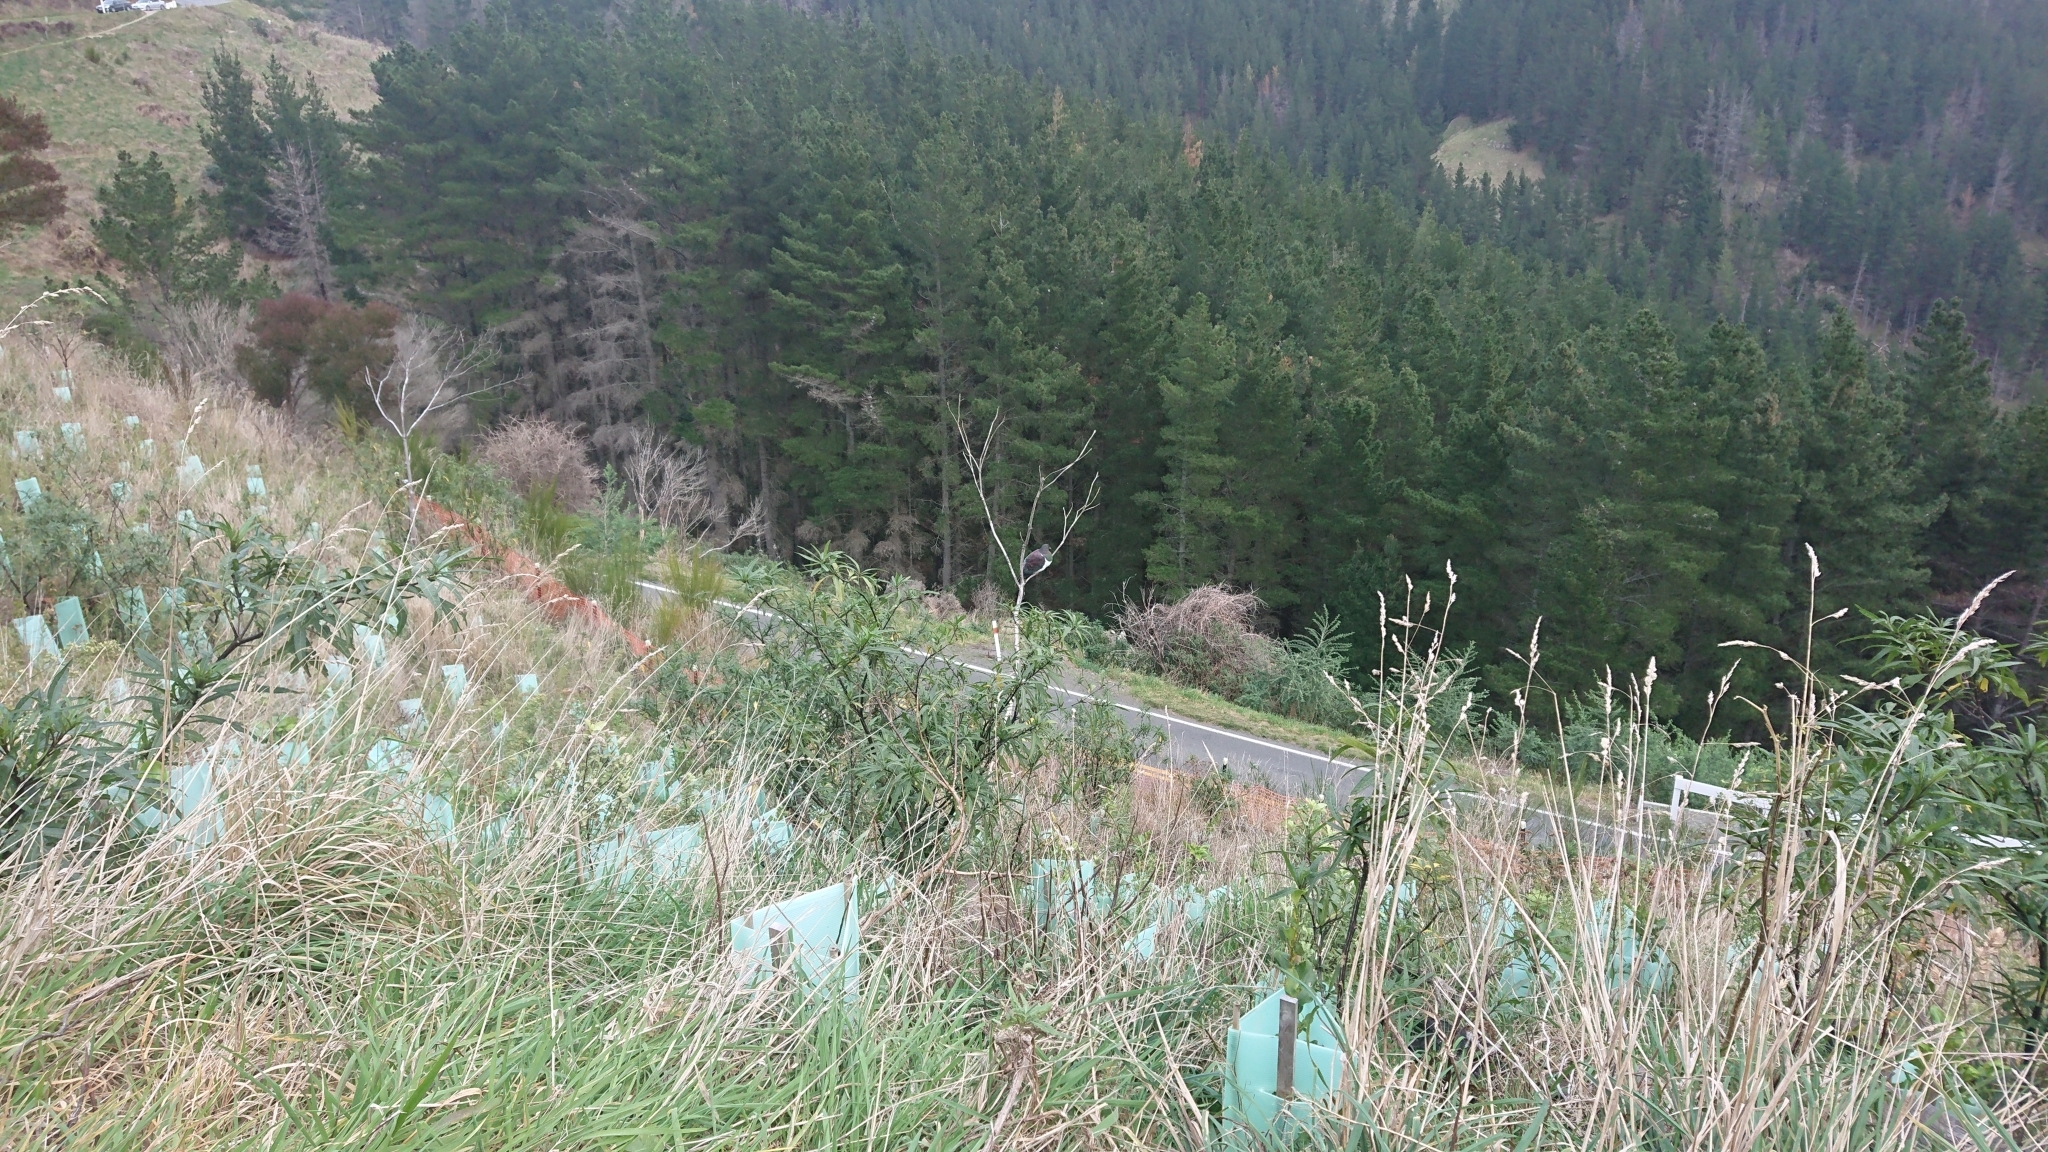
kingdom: Animalia
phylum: Chordata
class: Aves
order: Columbiformes
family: Columbidae
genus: Hemiphaga
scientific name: Hemiphaga novaeseelandiae
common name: New zealand pigeon
